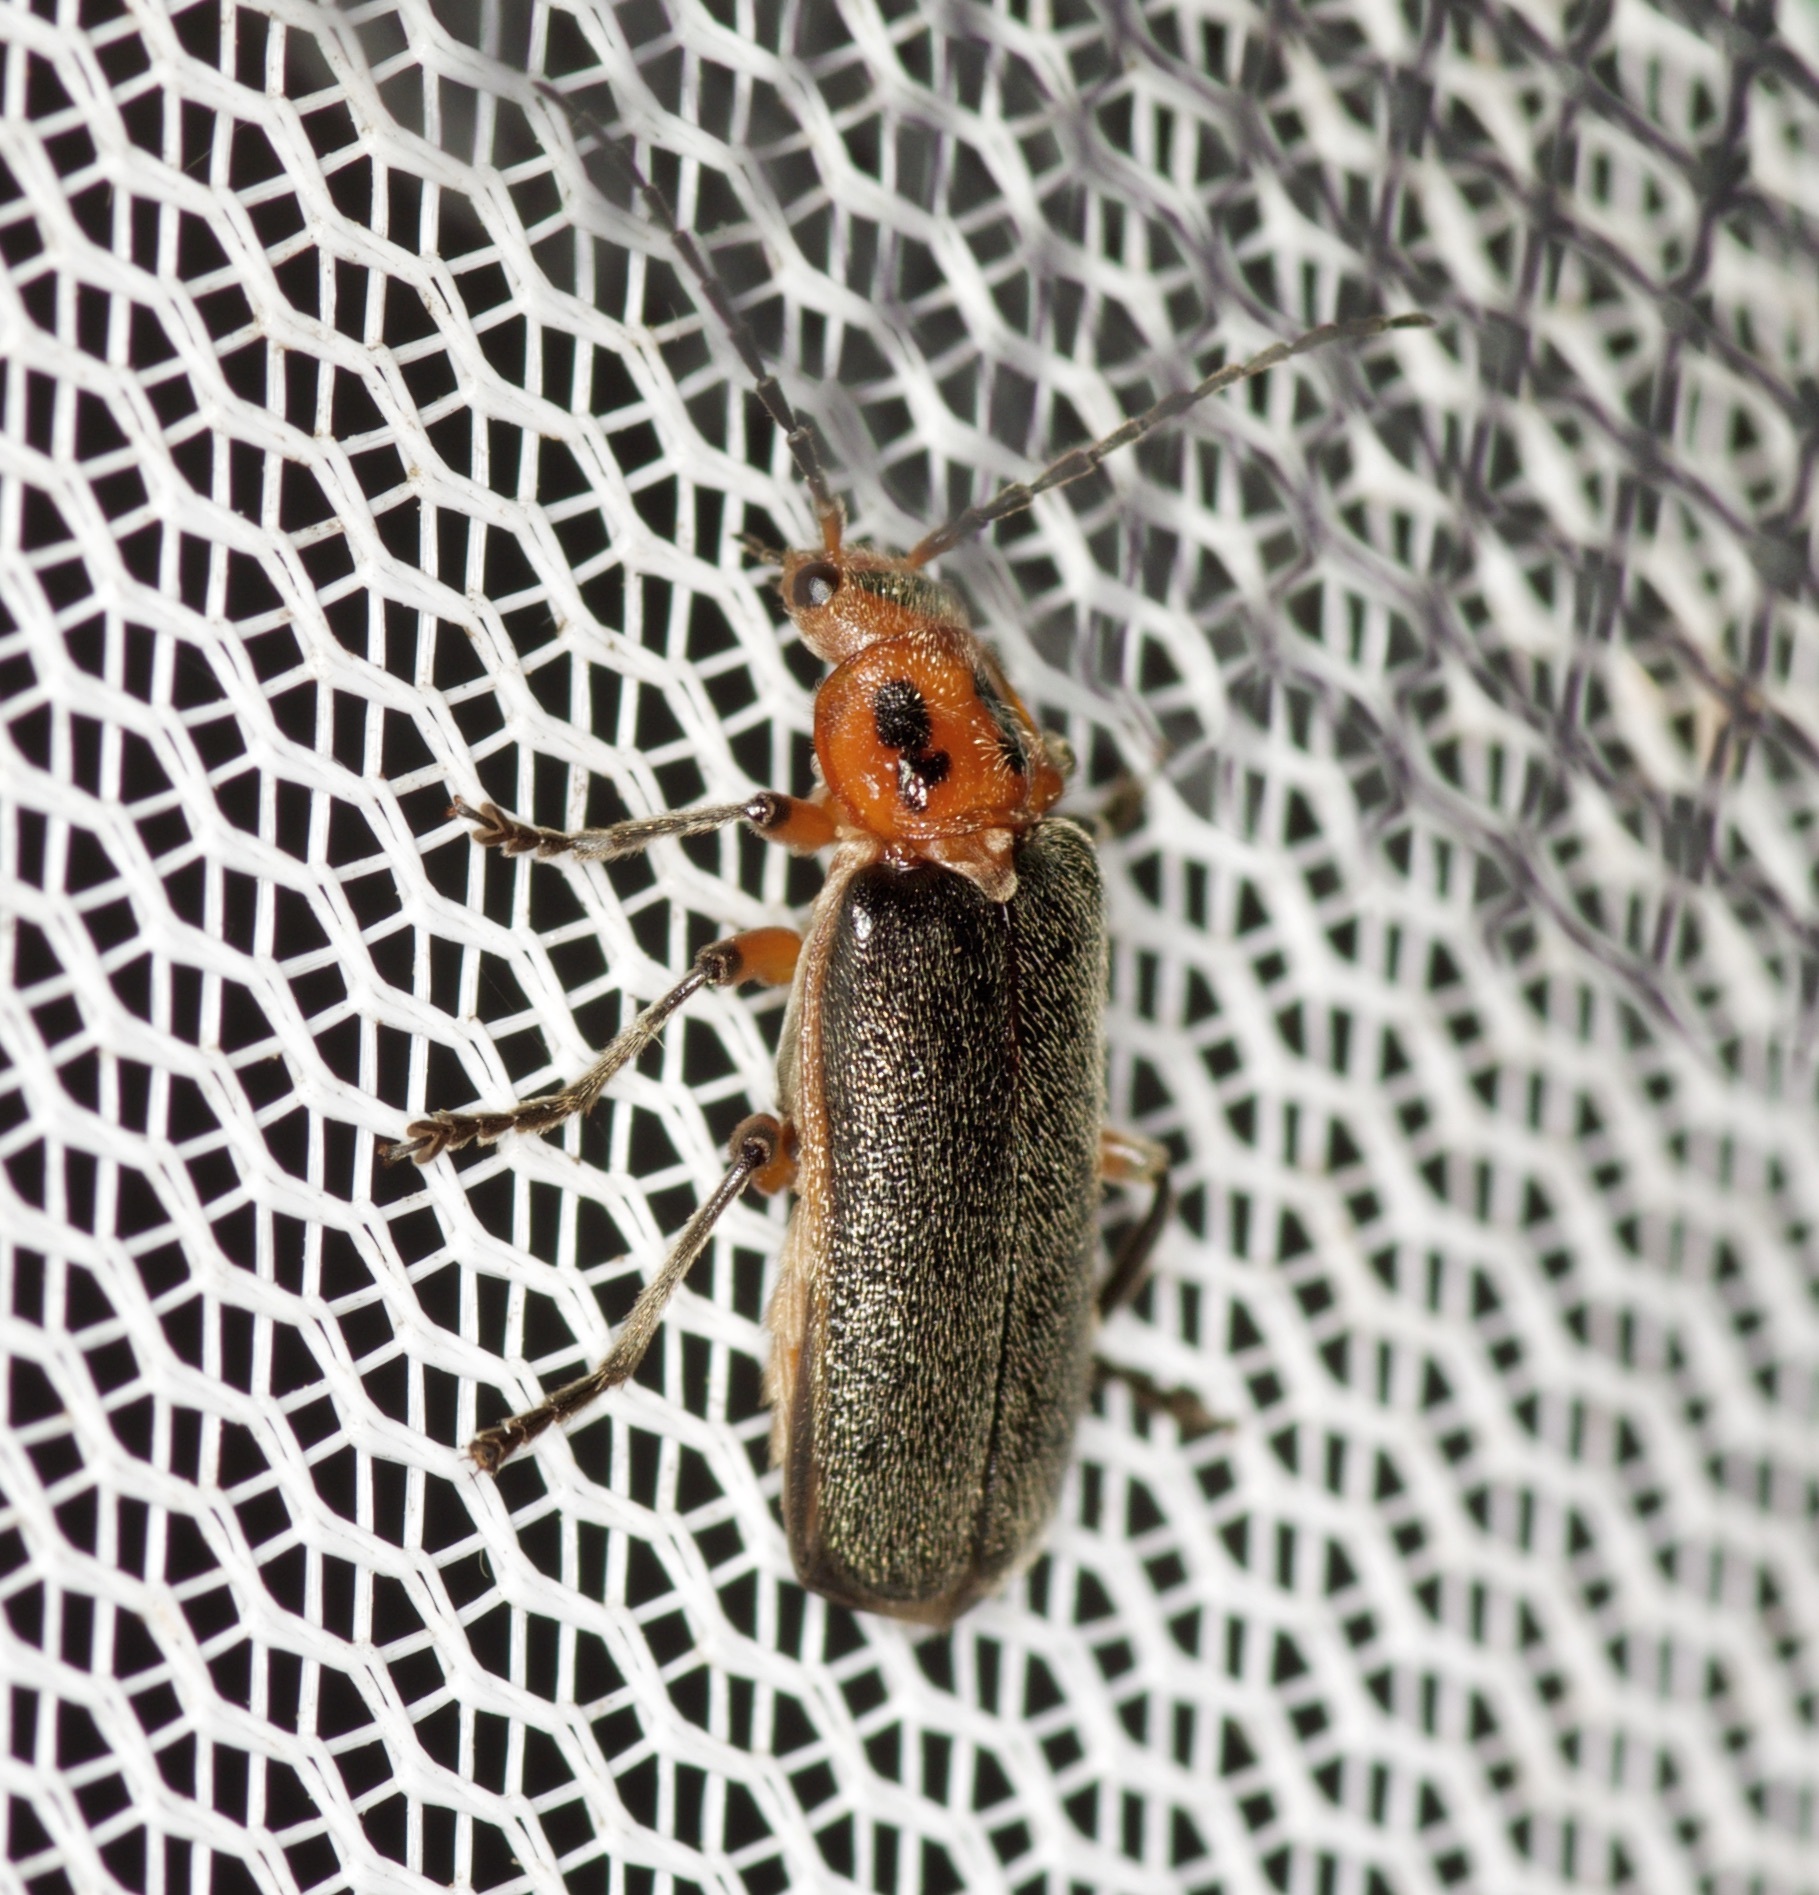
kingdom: Animalia
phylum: Arthropoda
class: Insecta
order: Coleoptera
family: Cantharidae
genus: Atalantycha
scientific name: Atalantycha bilineata
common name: Two-lined leatherwing
